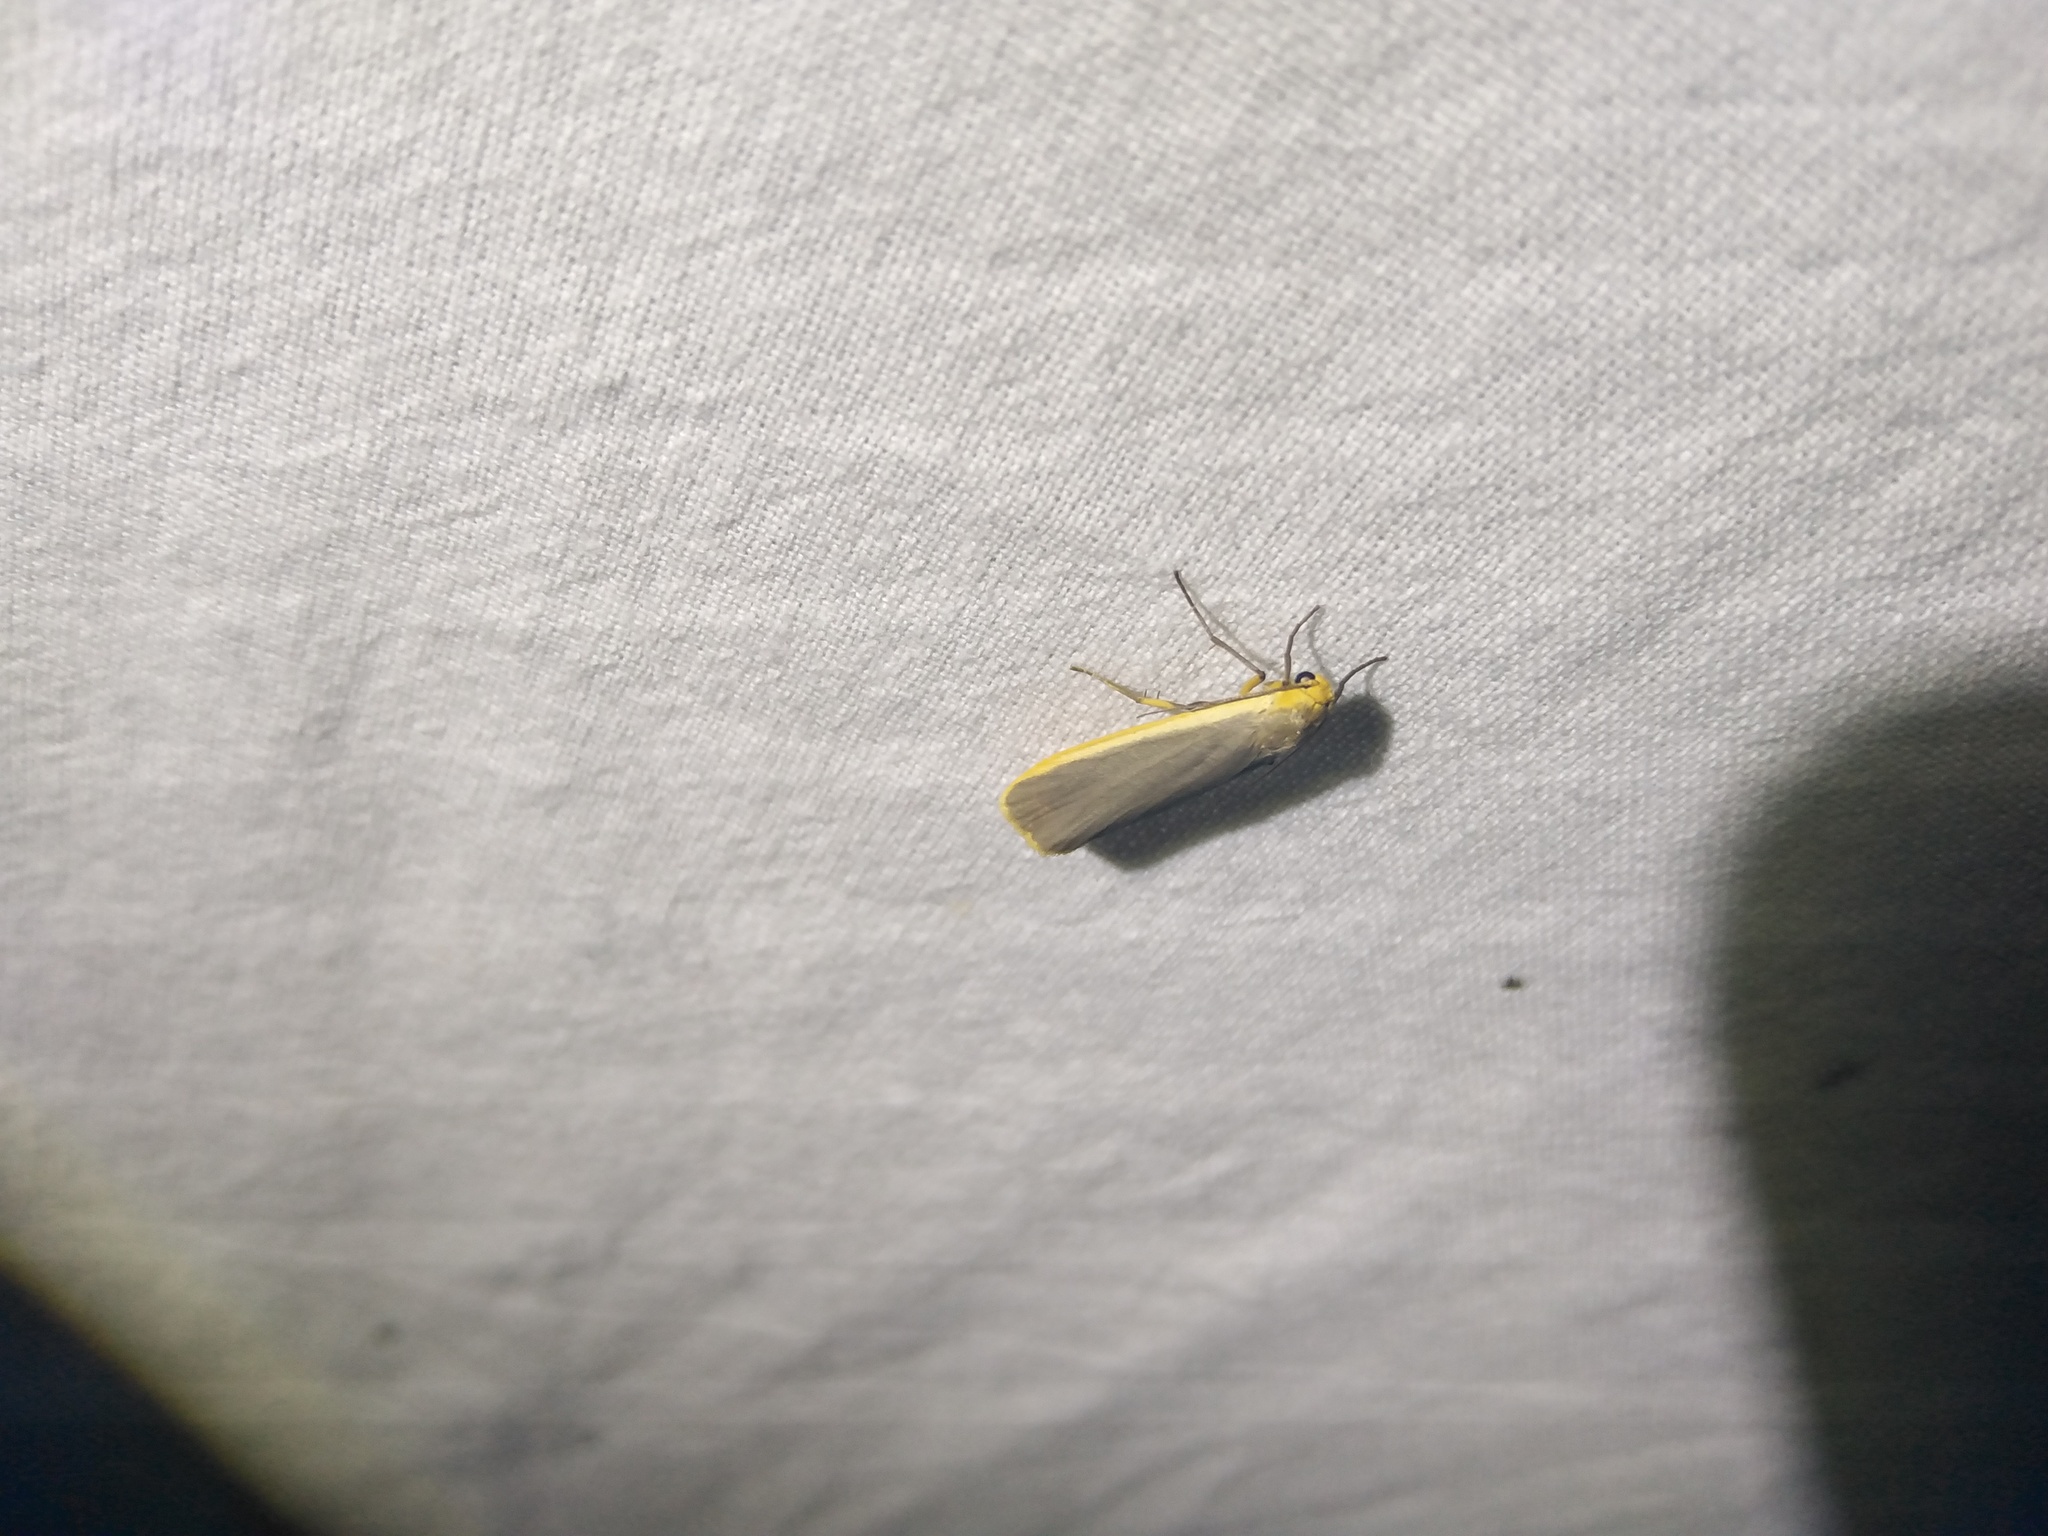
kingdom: Animalia
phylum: Arthropoda
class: Insecta
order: Lepidoptera
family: Erebidae
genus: Nyea
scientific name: Nyea lurideola
